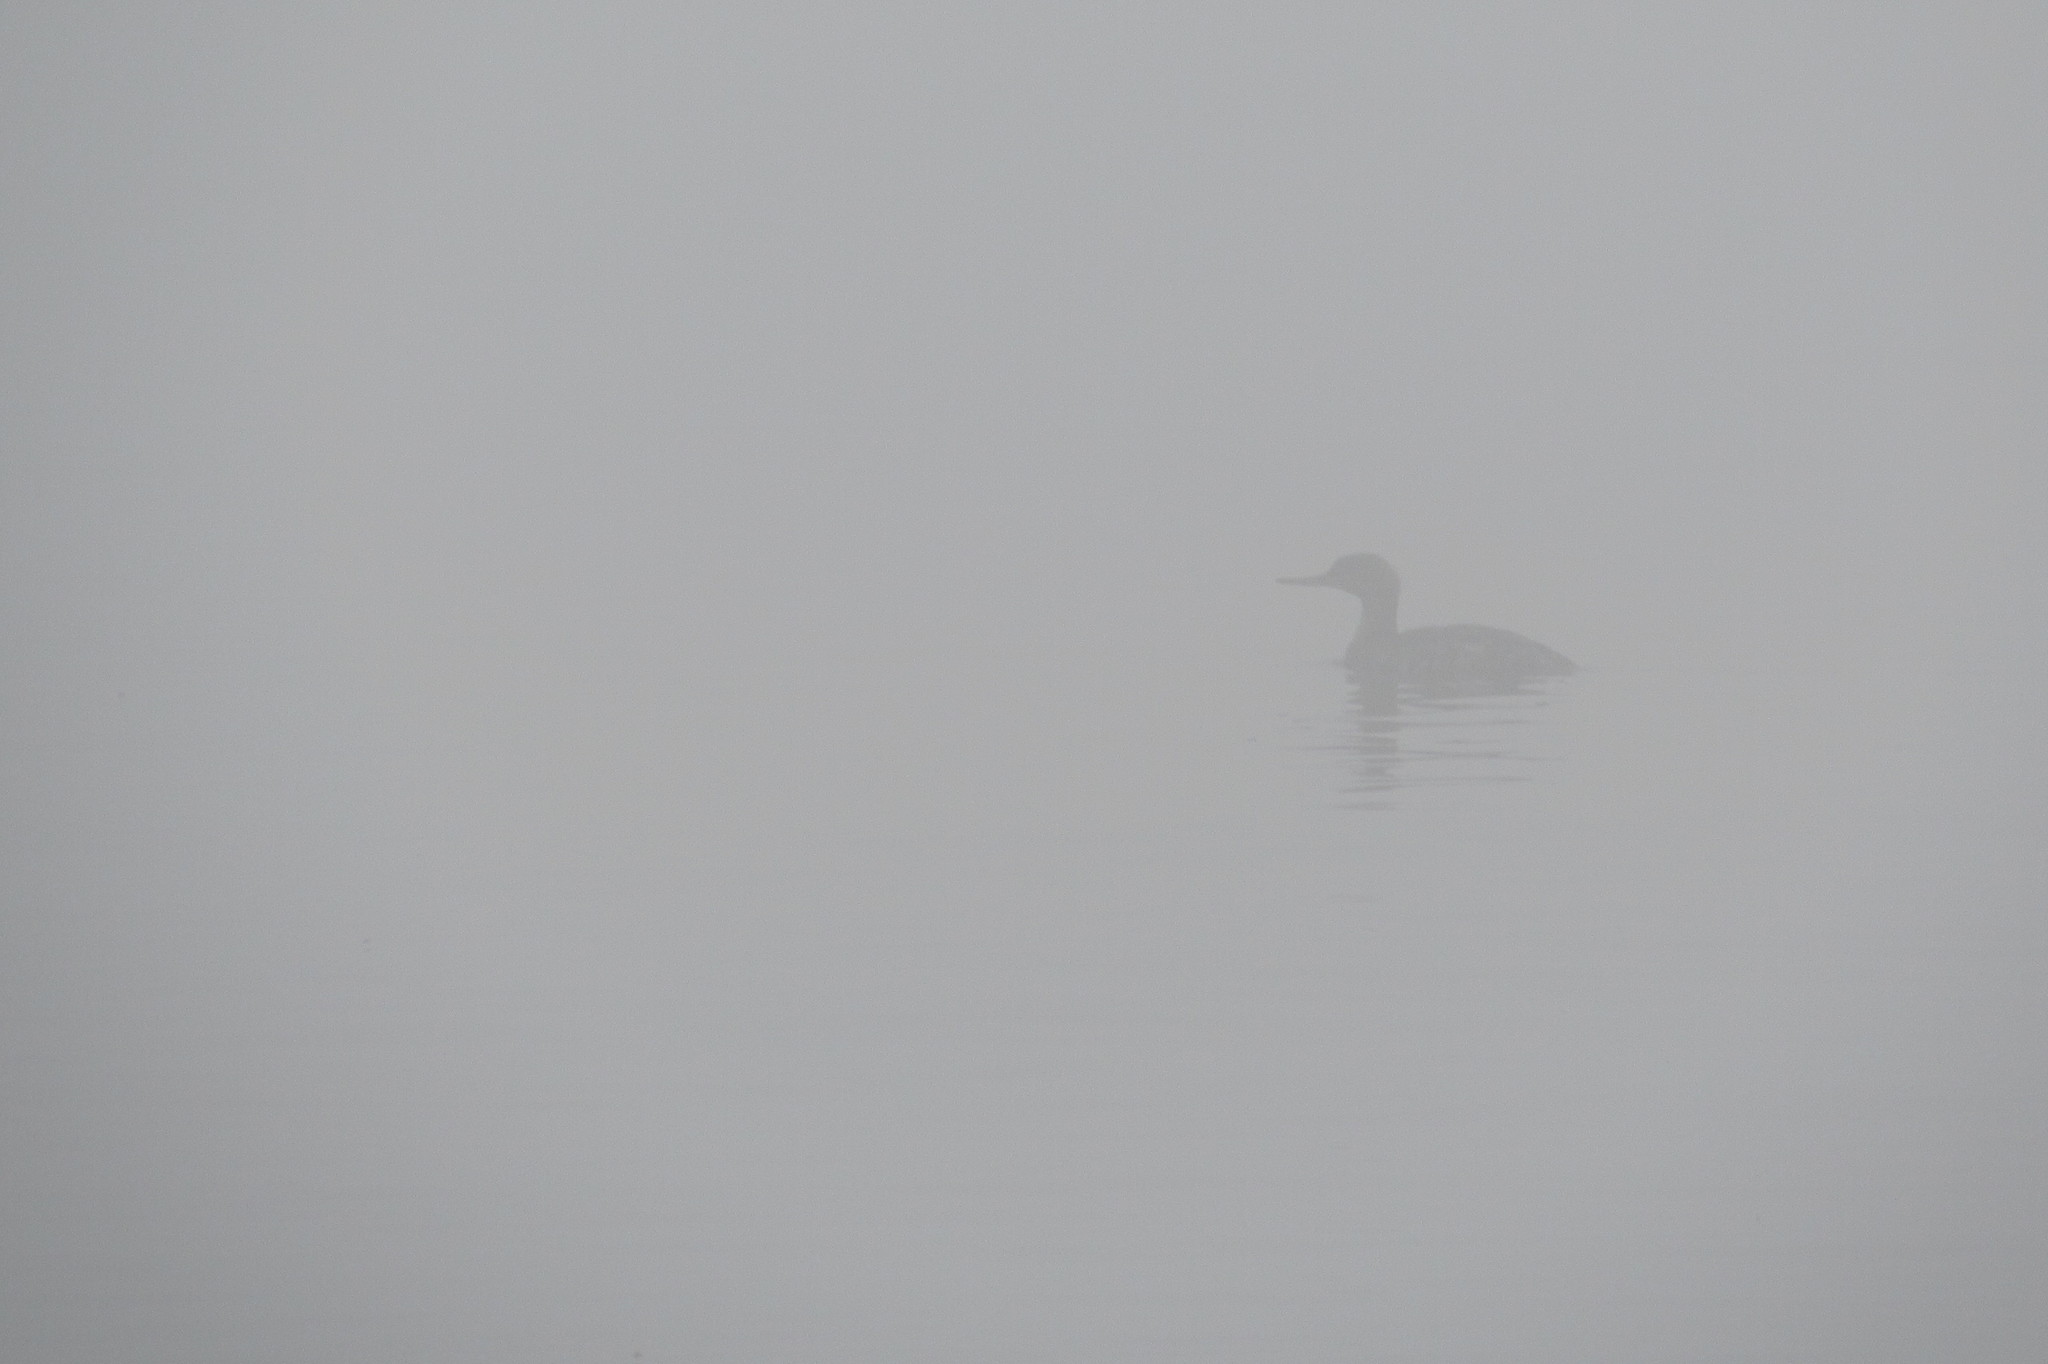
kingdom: Animalia
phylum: Chordata
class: Aves
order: Anseriformes
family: Anatidae
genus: Mergus
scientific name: Mergus serrator
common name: Red-breasted merganser
